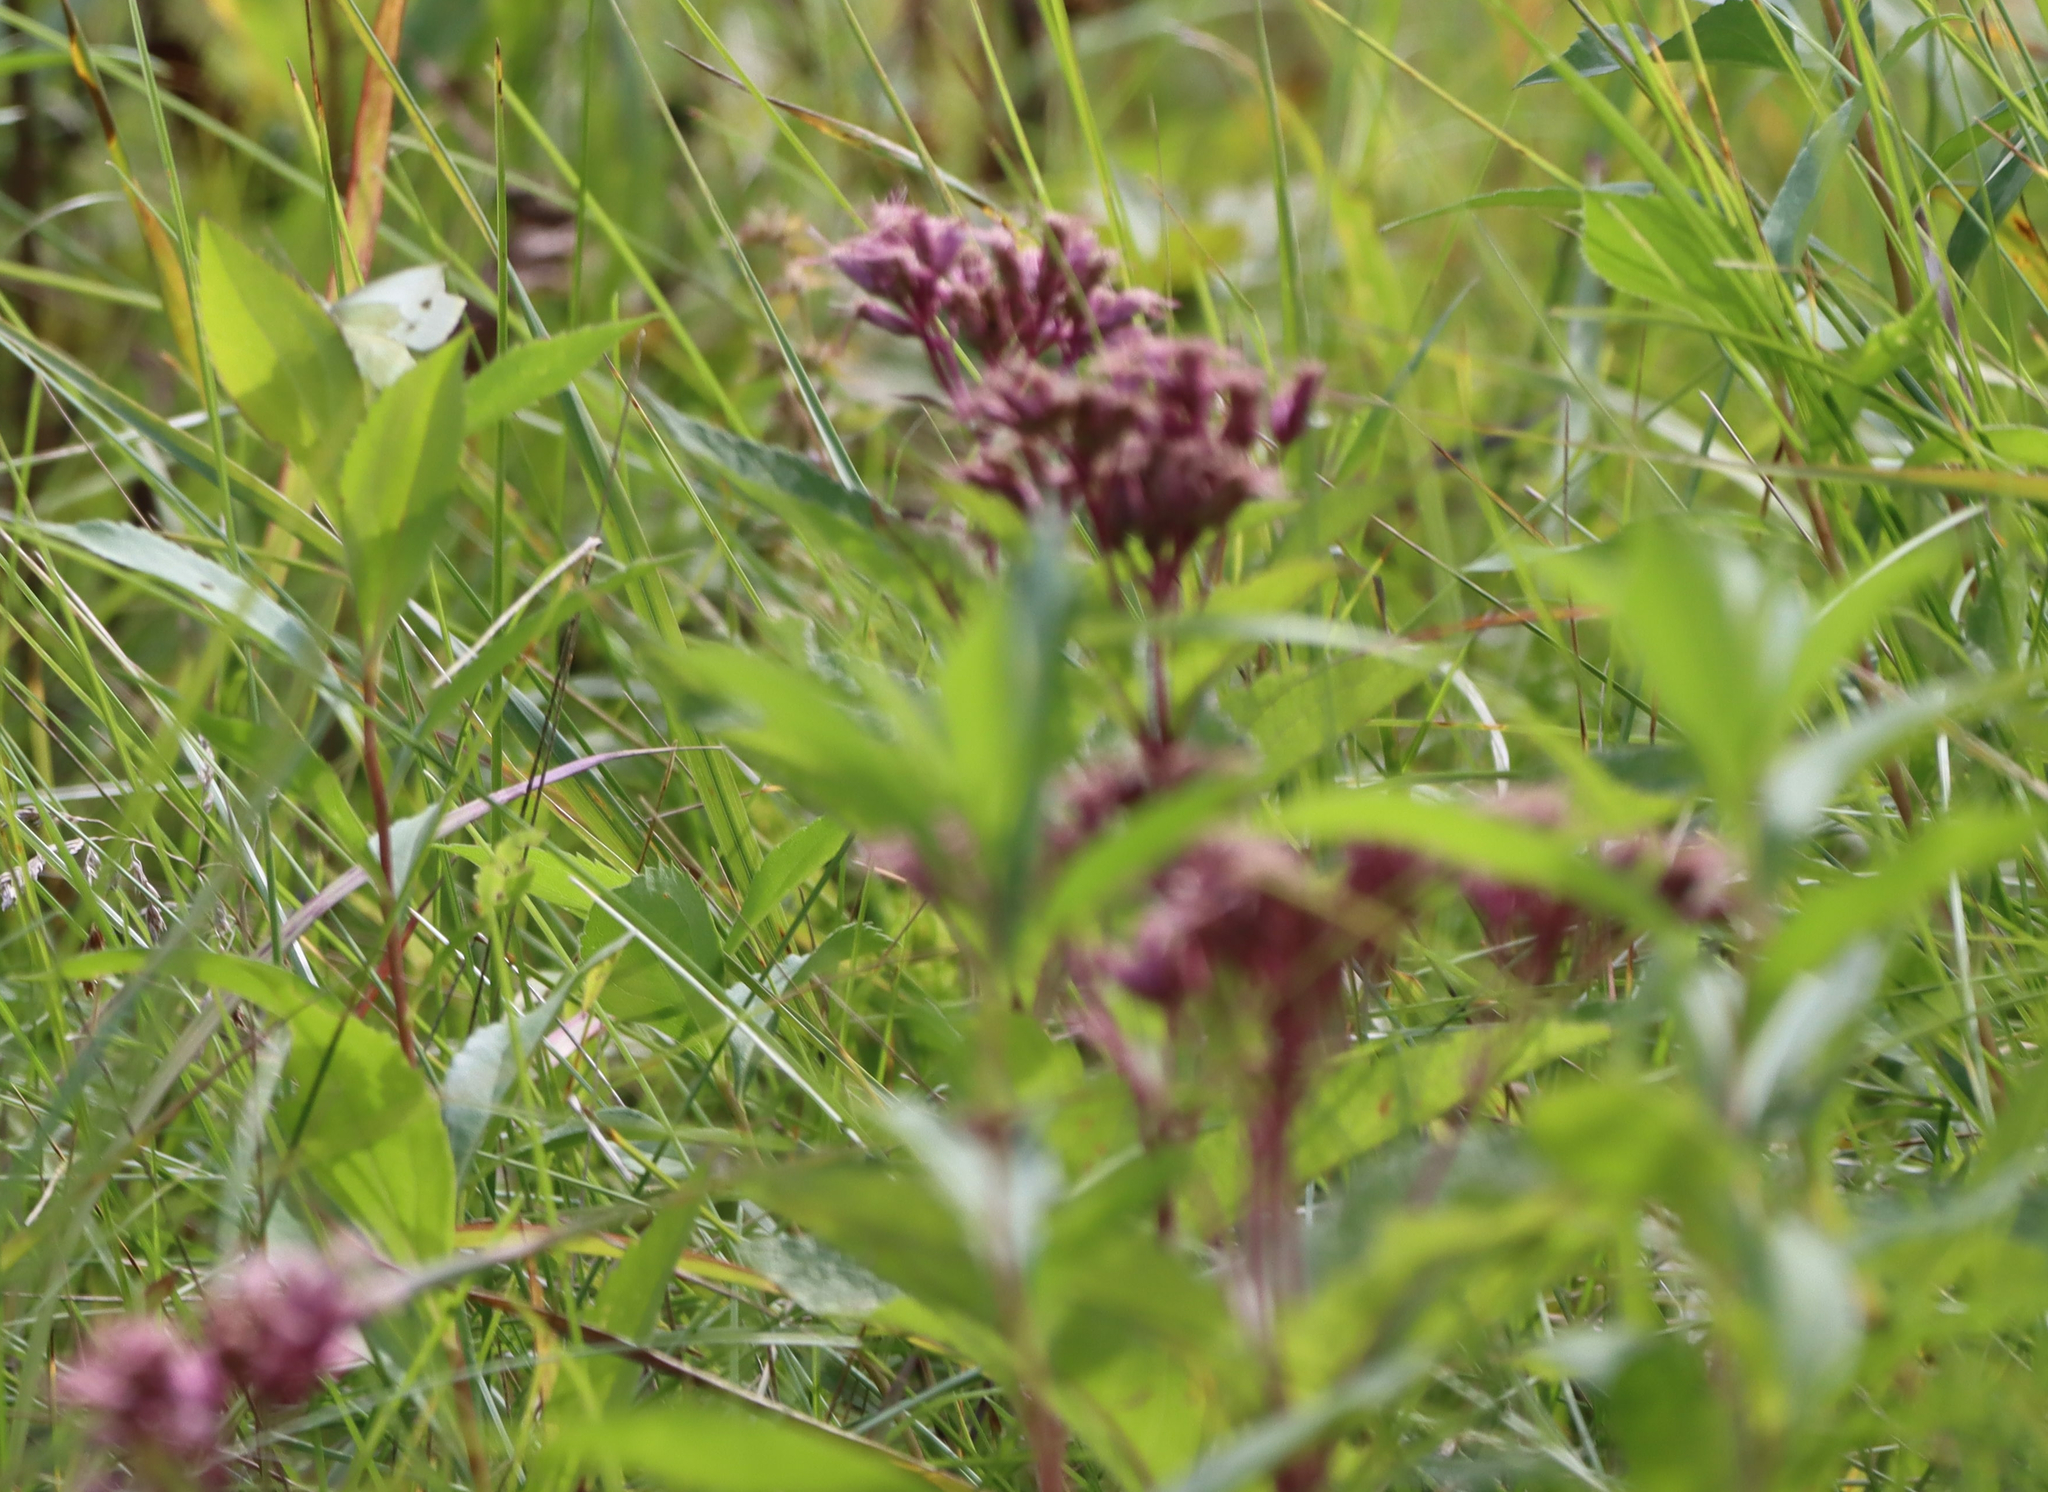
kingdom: Plantae
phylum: Tracheophyta
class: Magnoliopsida
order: Asterales
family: Asteraceae
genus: Eutrochium
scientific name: Eutrochium maculatum
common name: Spotted joe pye weed
